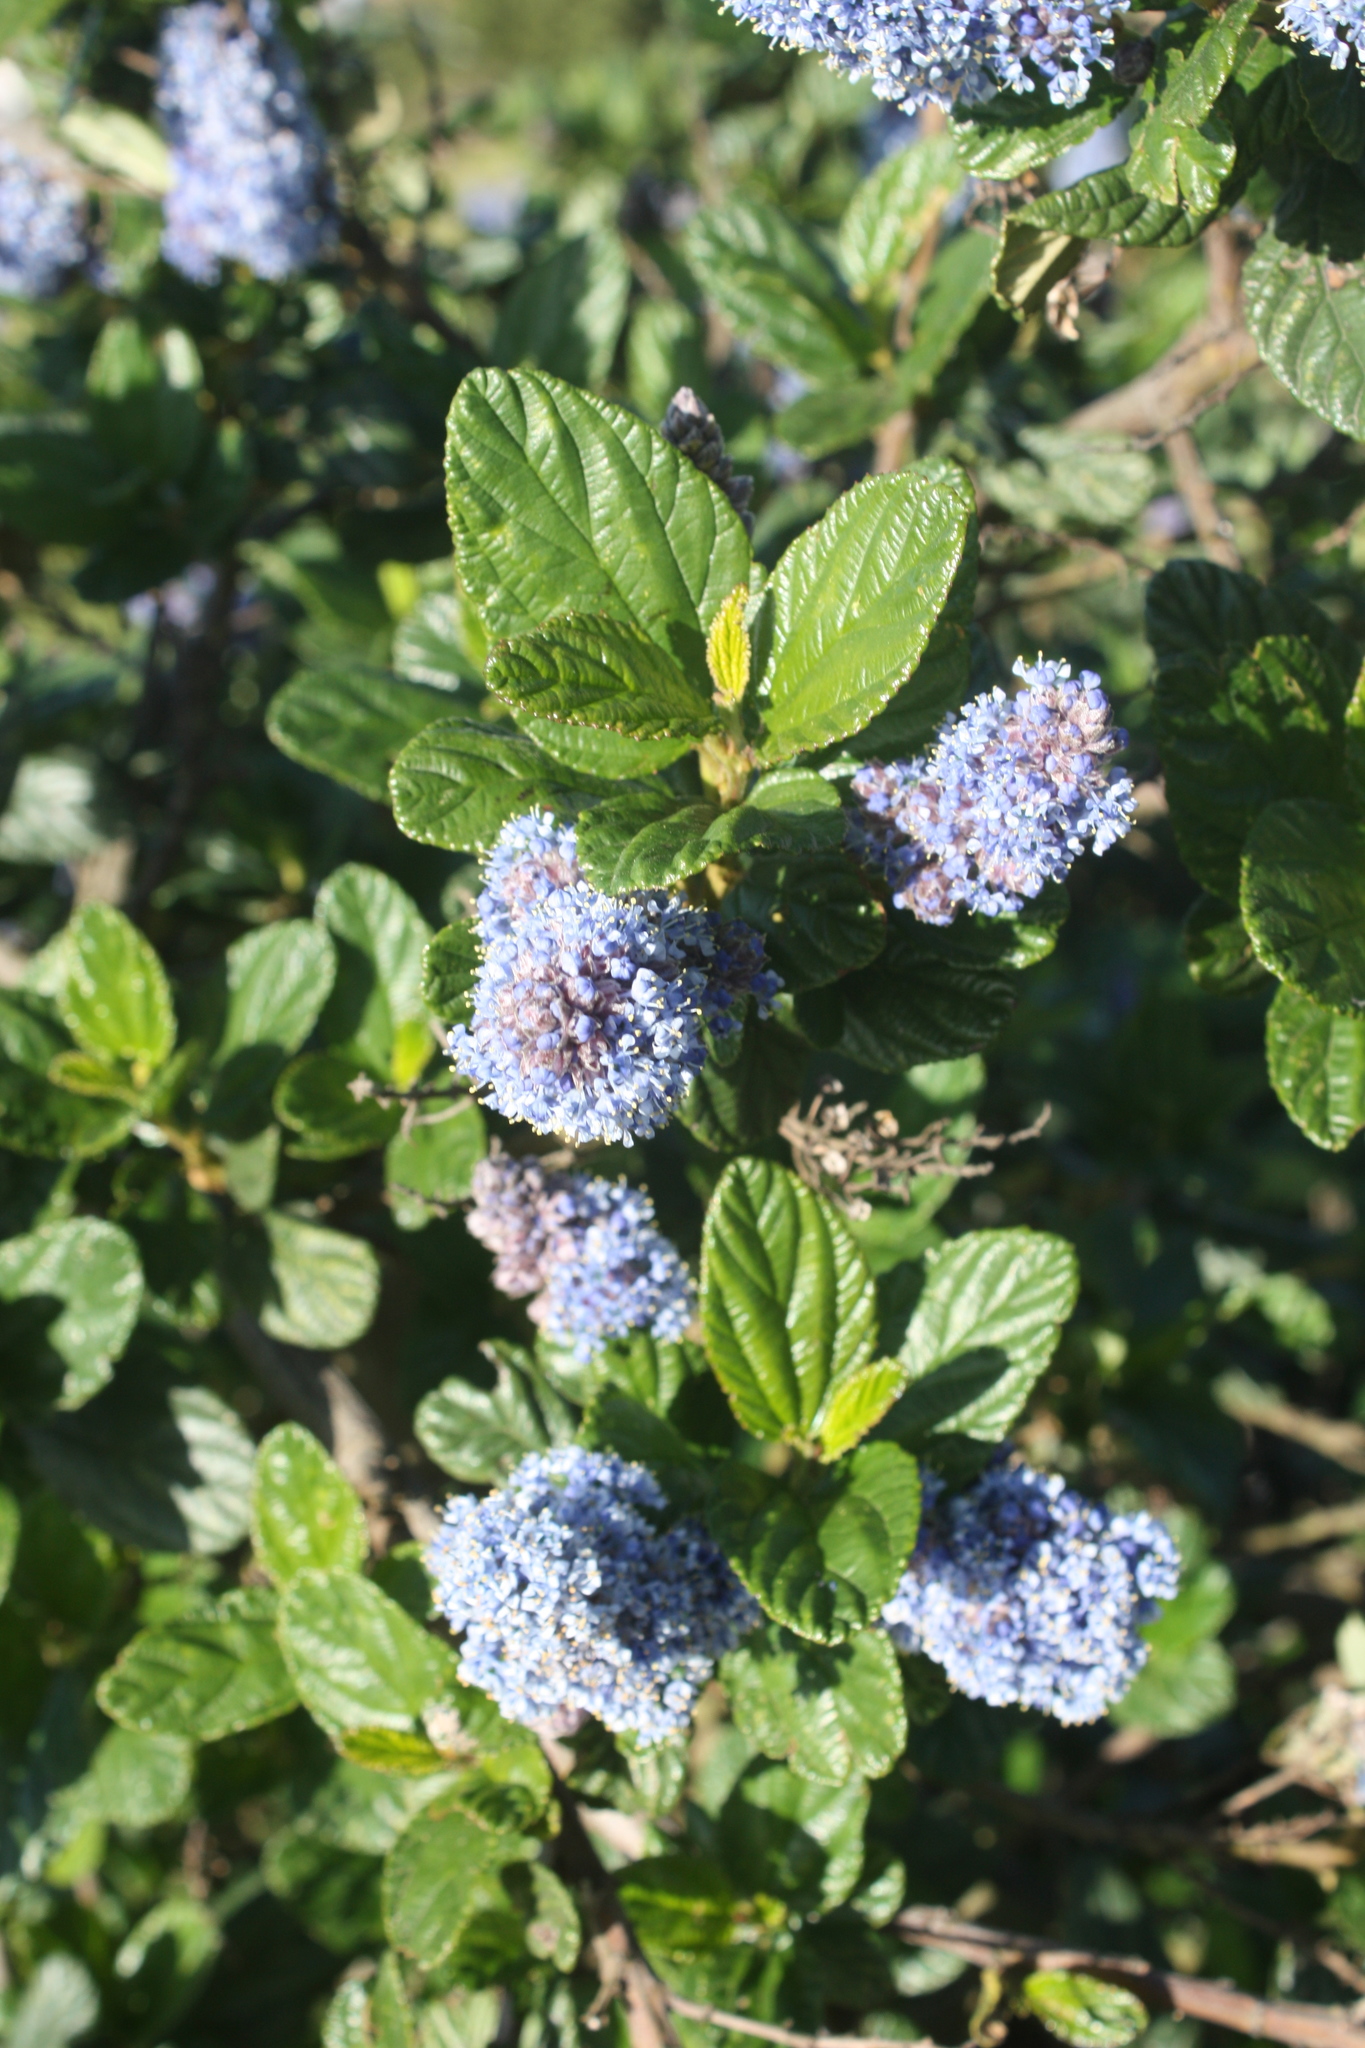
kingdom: Plantae
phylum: Tracheophyta
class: Magnoliopsida
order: Rosales
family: Rhamnaceae
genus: Ceanothus
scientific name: Ceanothus thyrsiflorus
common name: California-lilac
